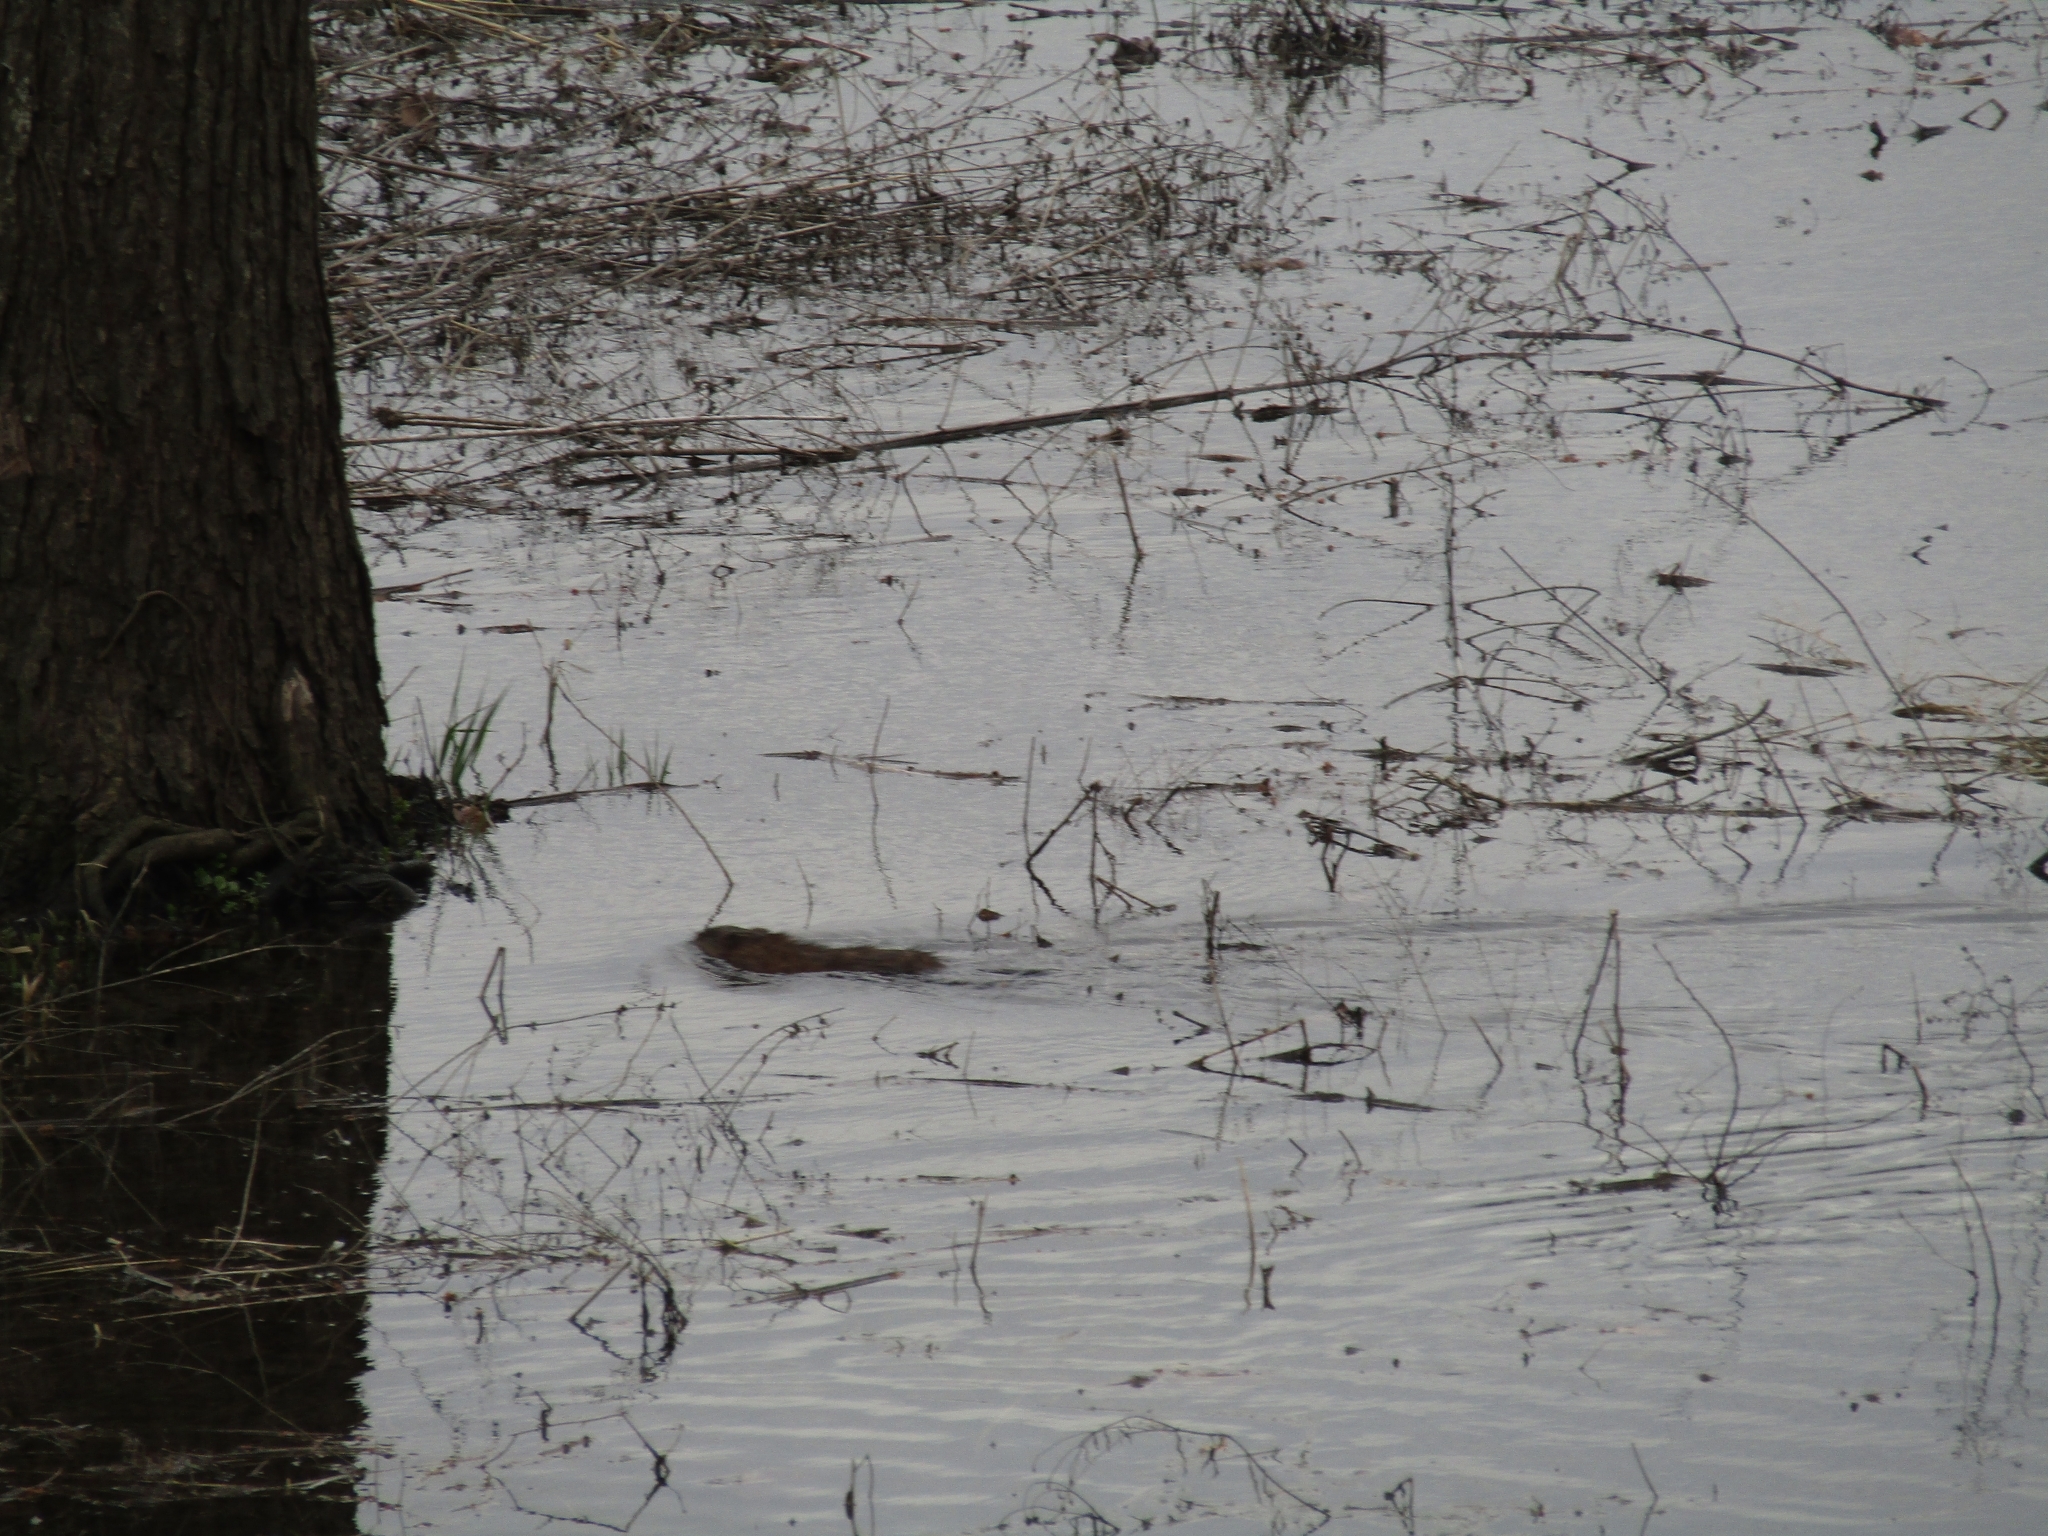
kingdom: Animalia
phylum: Chordata
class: Mammalia
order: Rodentia
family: Cricetidae
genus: Ondatra
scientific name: Ondatra zibethicus
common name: Muskrat
